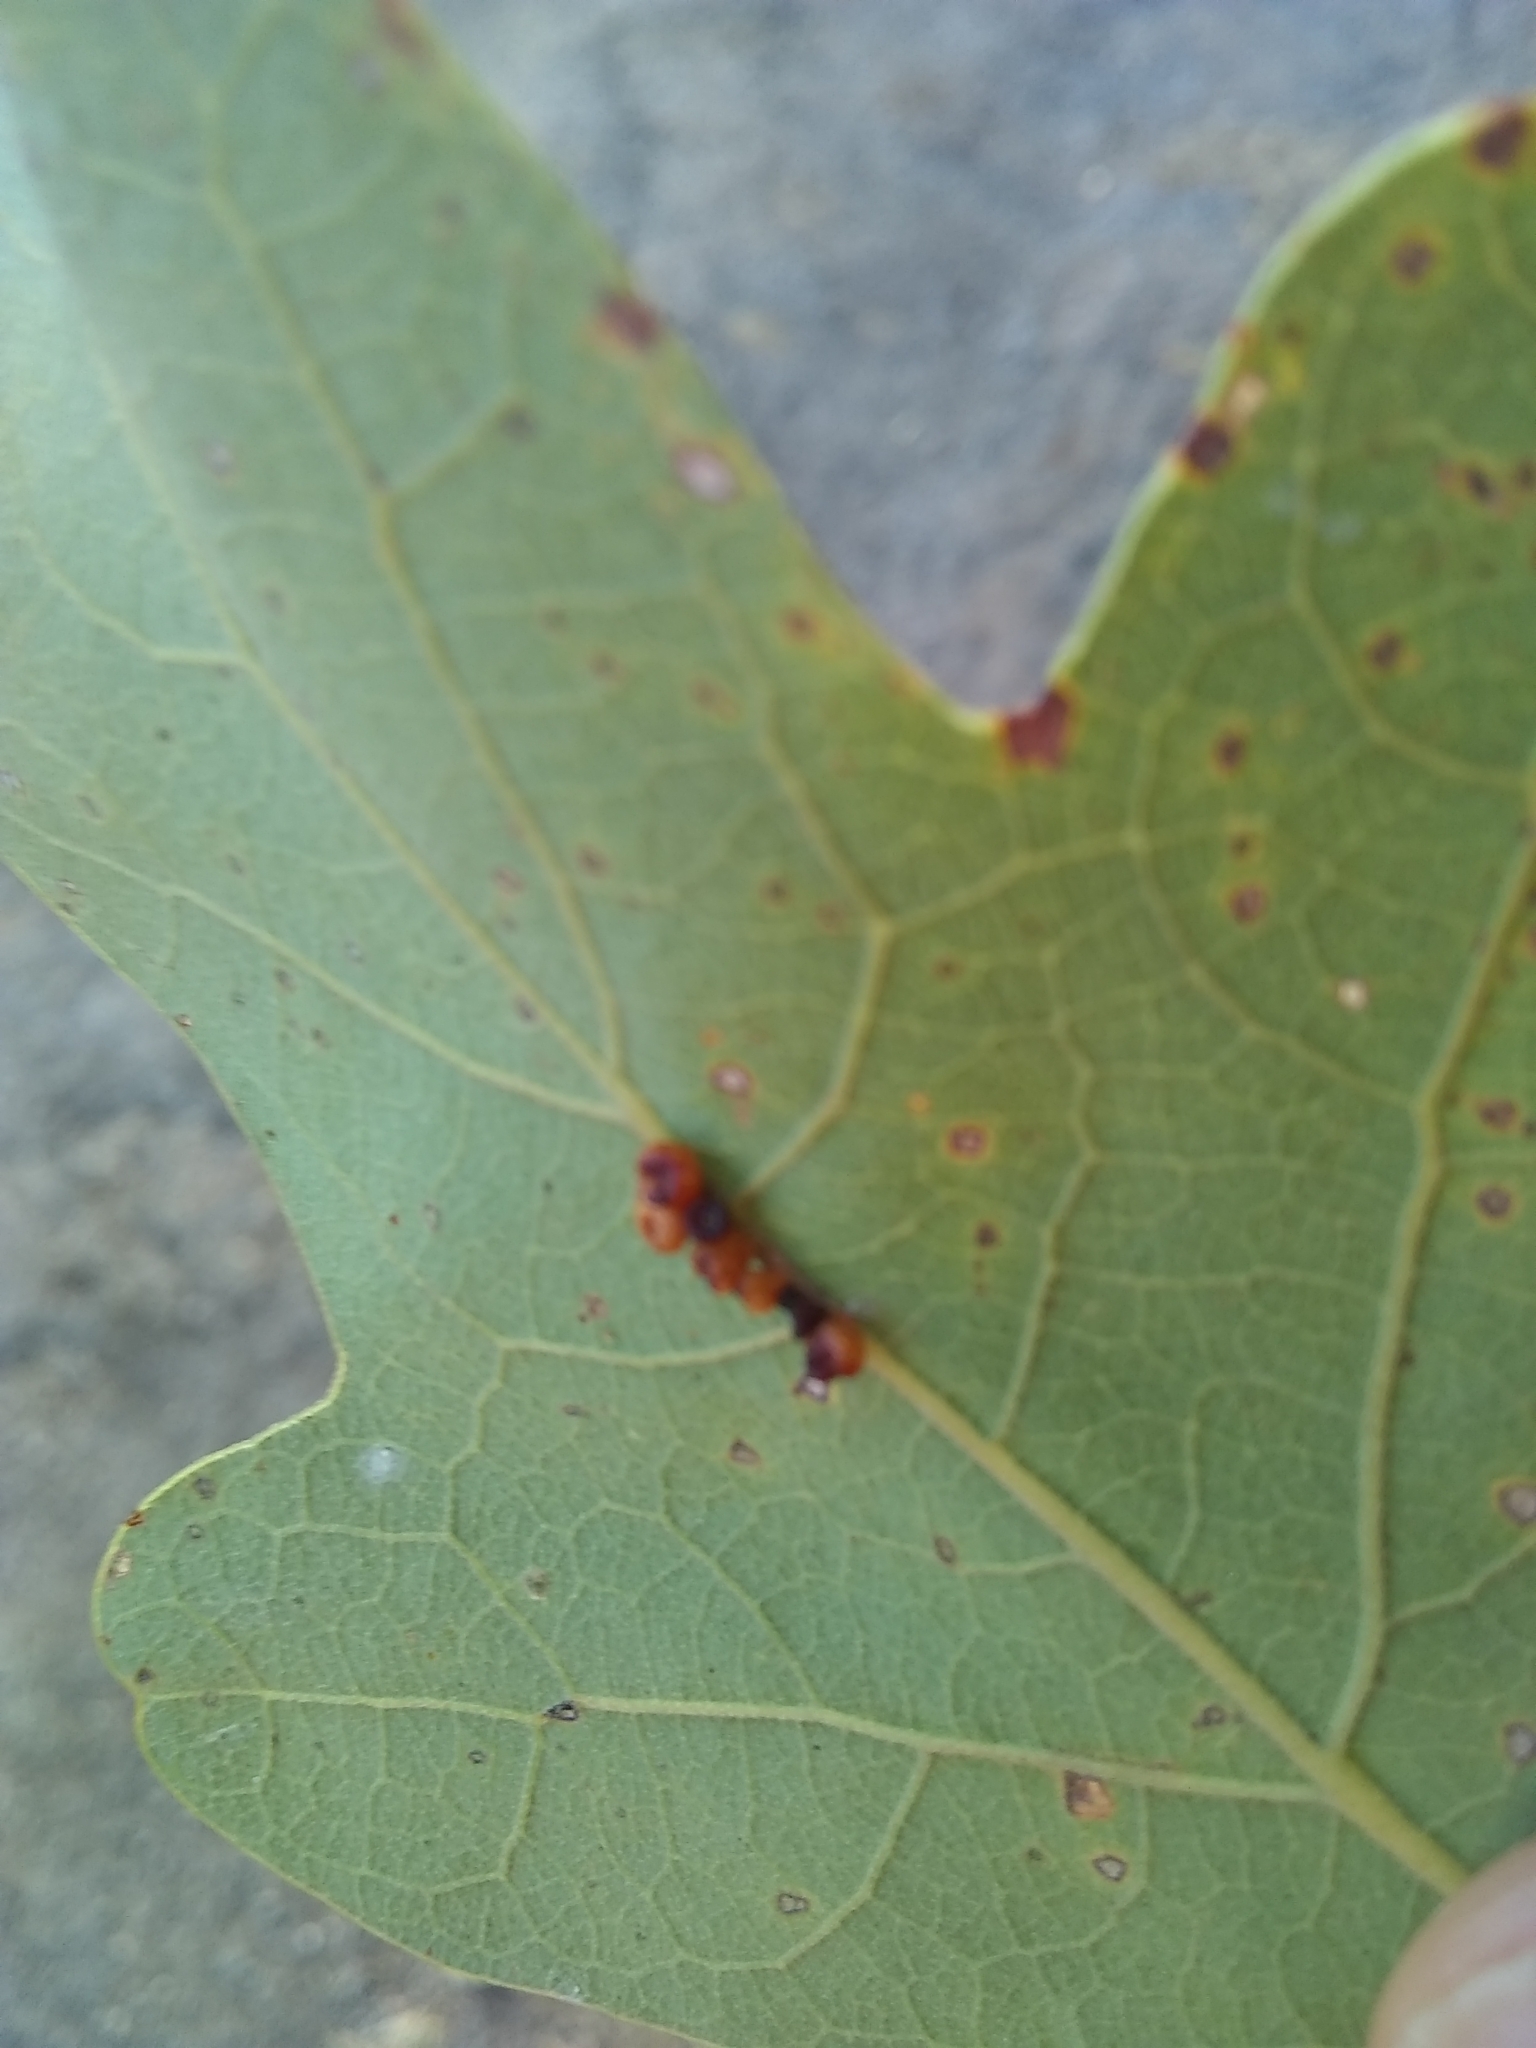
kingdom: Animalia
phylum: Arthropoda
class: Insecta
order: Hymenoptera
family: Cynipidae
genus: Andricus
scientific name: Andricus lustrans
